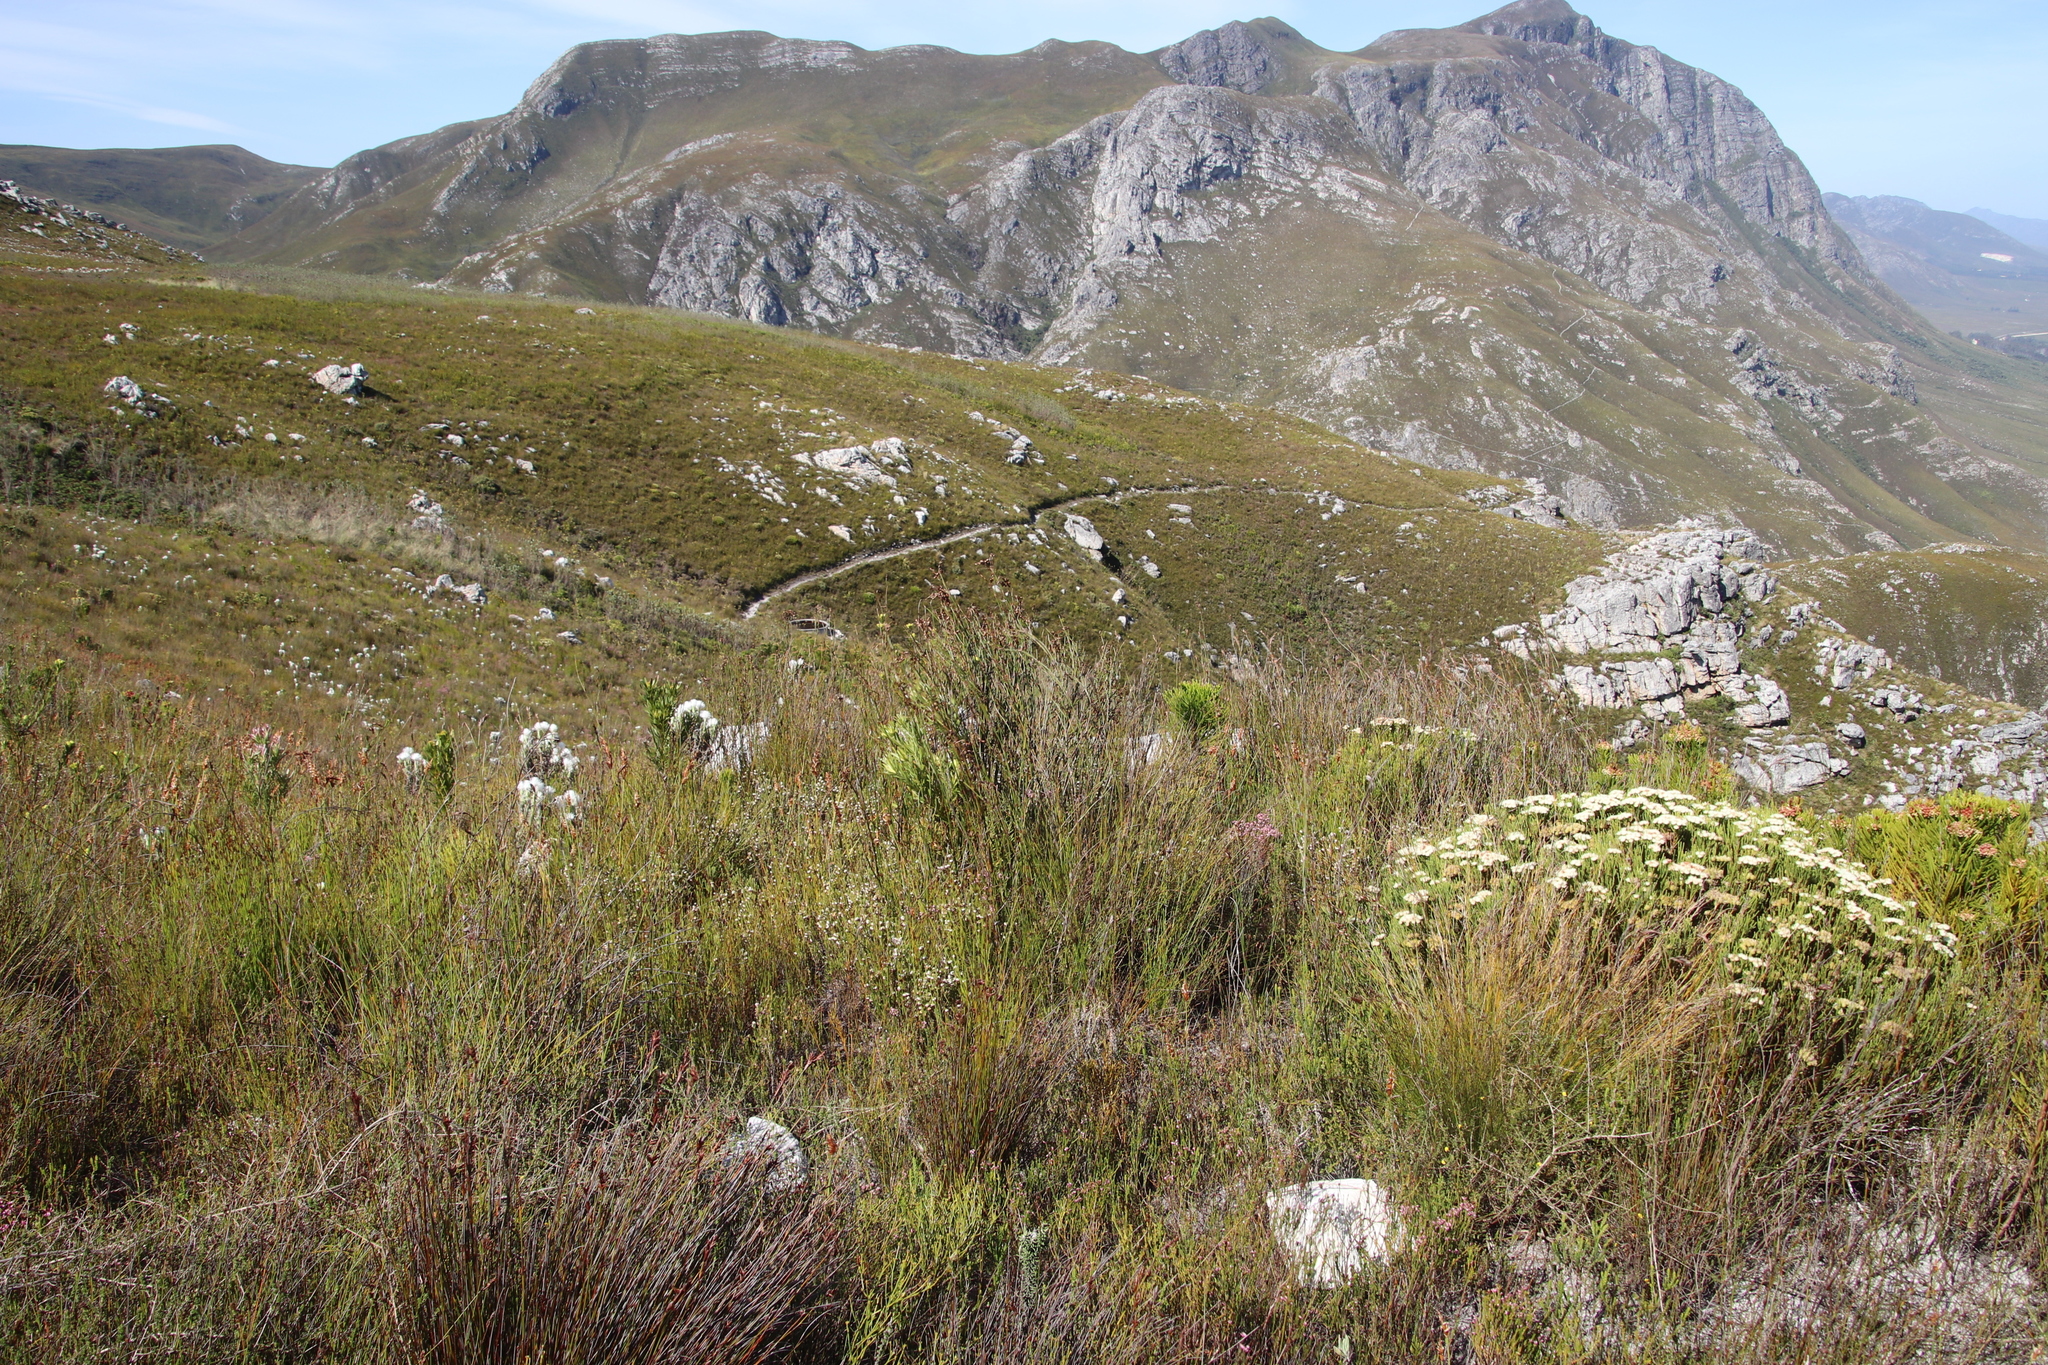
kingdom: Plantae
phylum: Tracheophyta
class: Liliopsida
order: Poales
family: Restionaceae
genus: Restio
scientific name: Restio egregius
